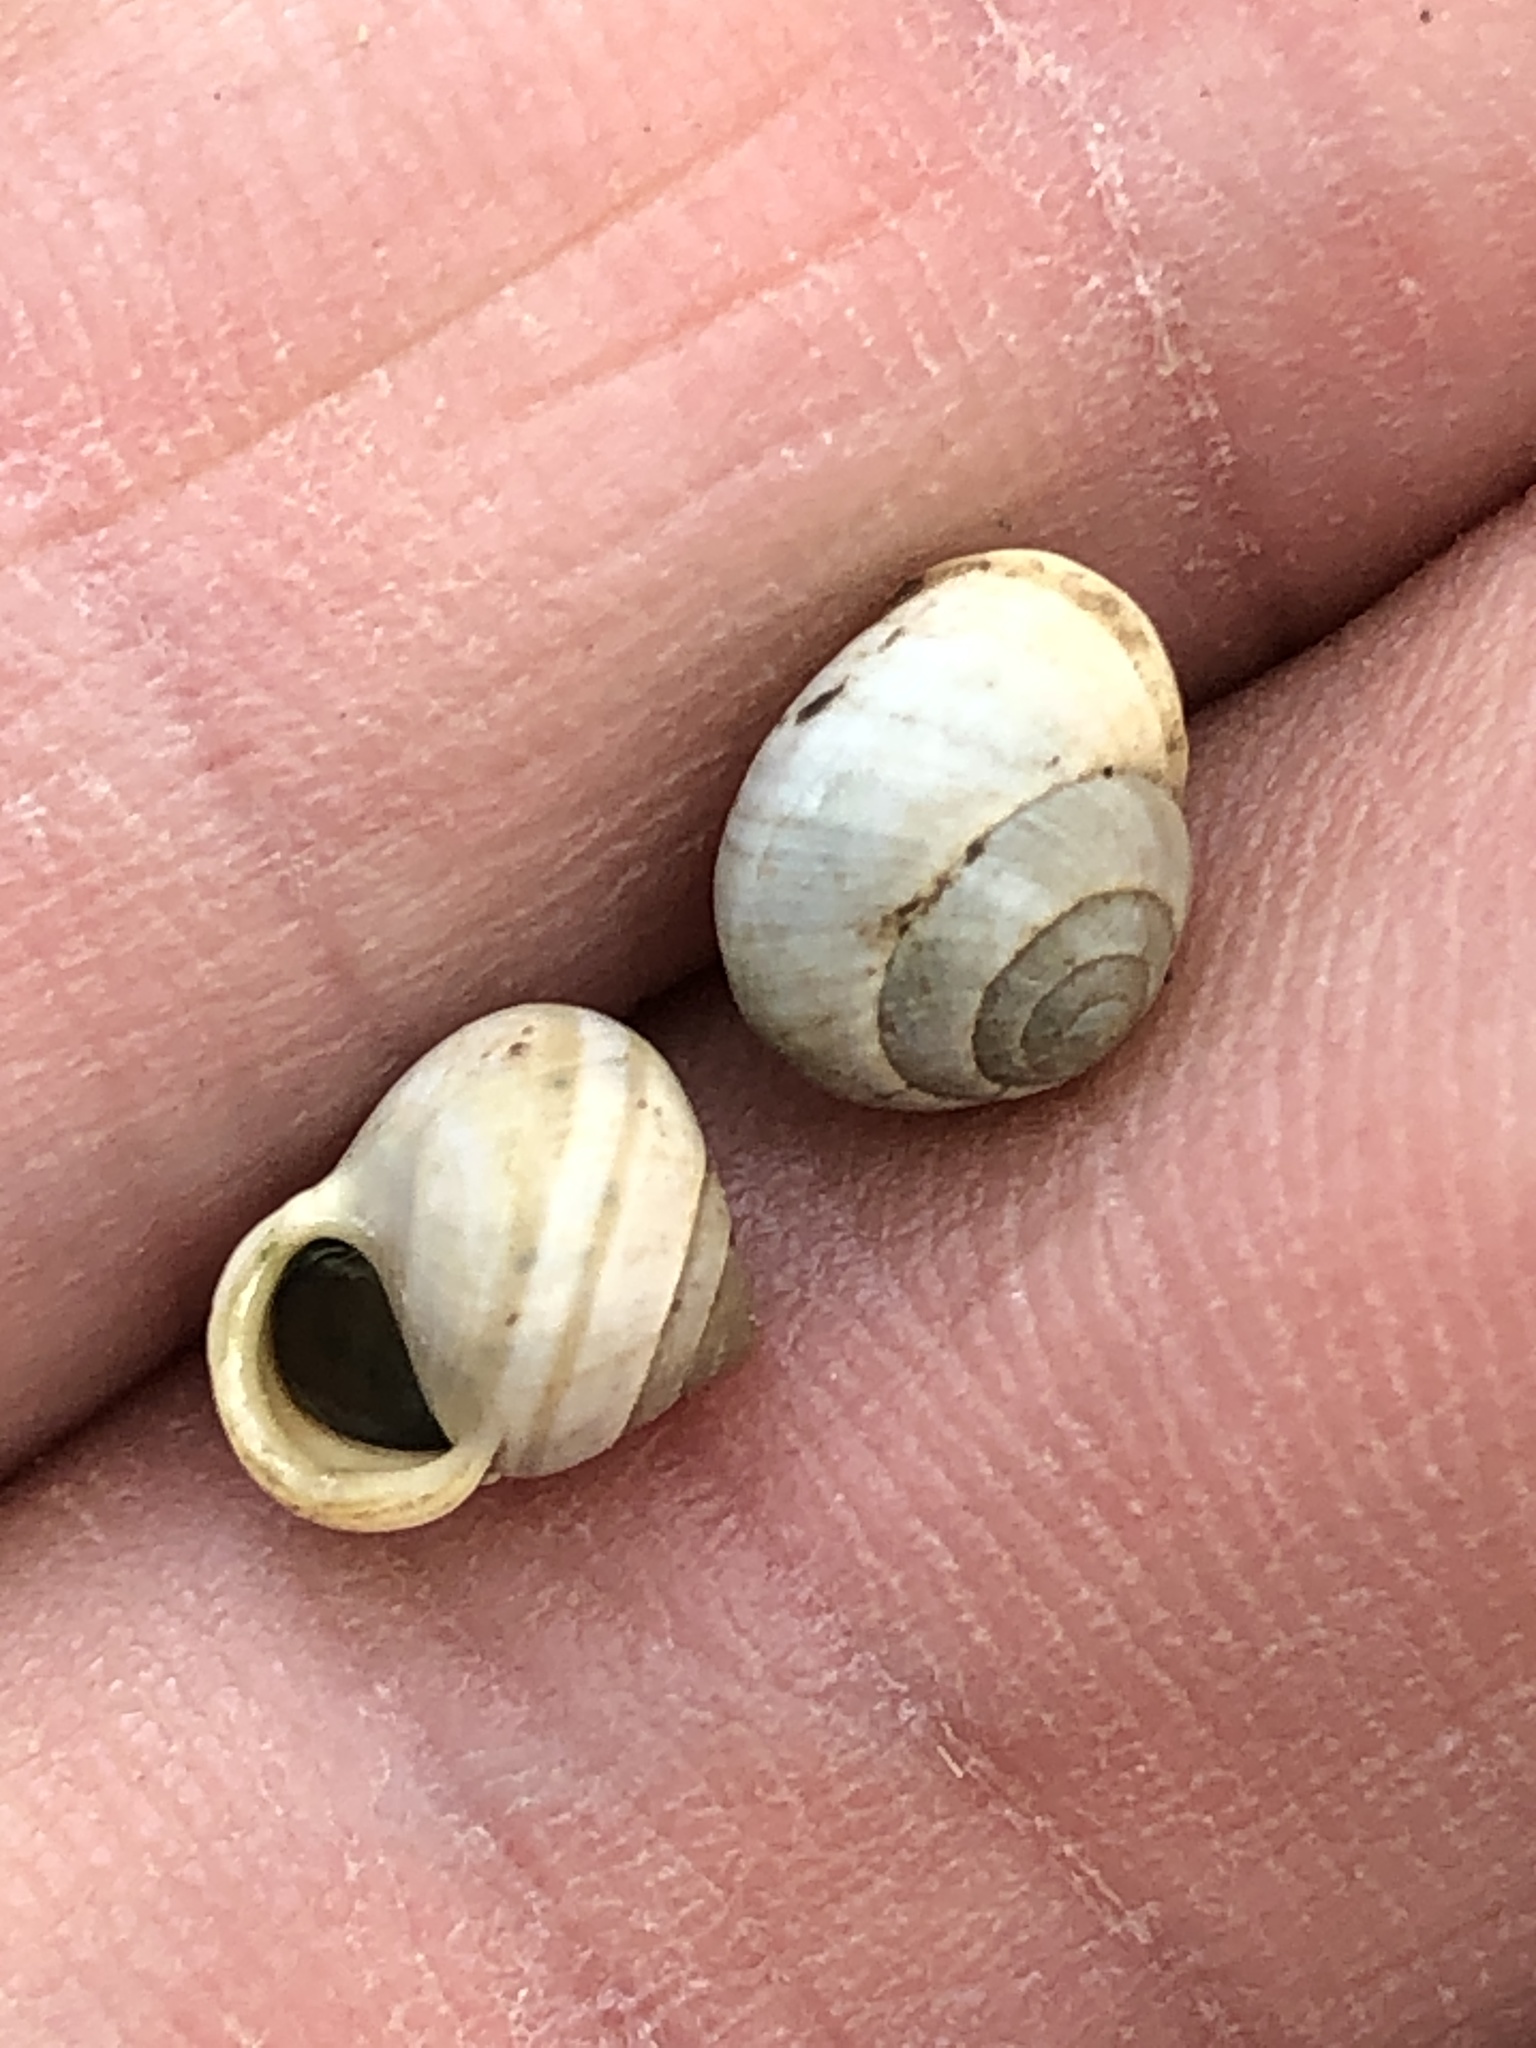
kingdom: Animalia
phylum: Mollusca
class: Gastropoda
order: Cycloneritida
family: Helicinidae
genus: Helicina
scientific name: Helicina orbiculata
